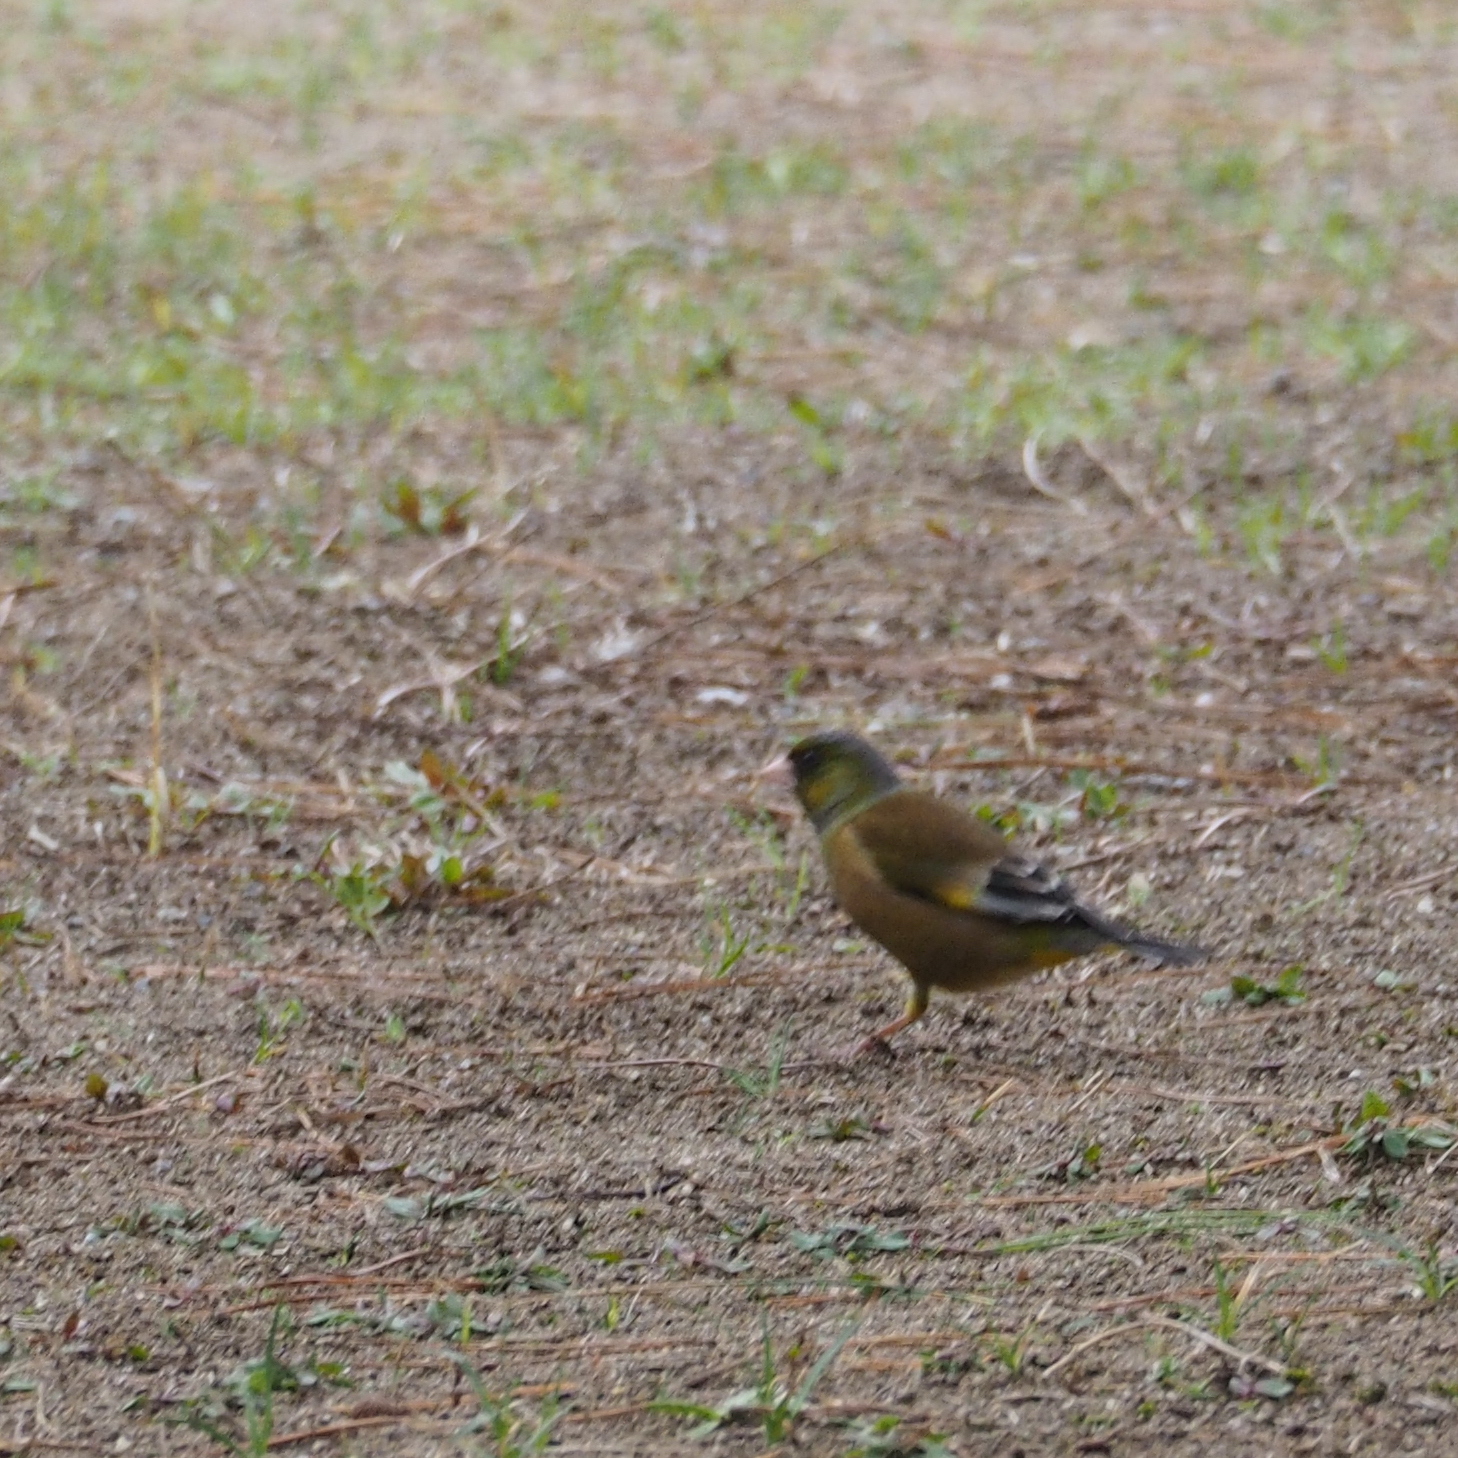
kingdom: Plantae
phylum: Tracheophyta
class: Liliopsida
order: Poales
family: Poaceae
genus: Chloris
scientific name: Chloris sinica
